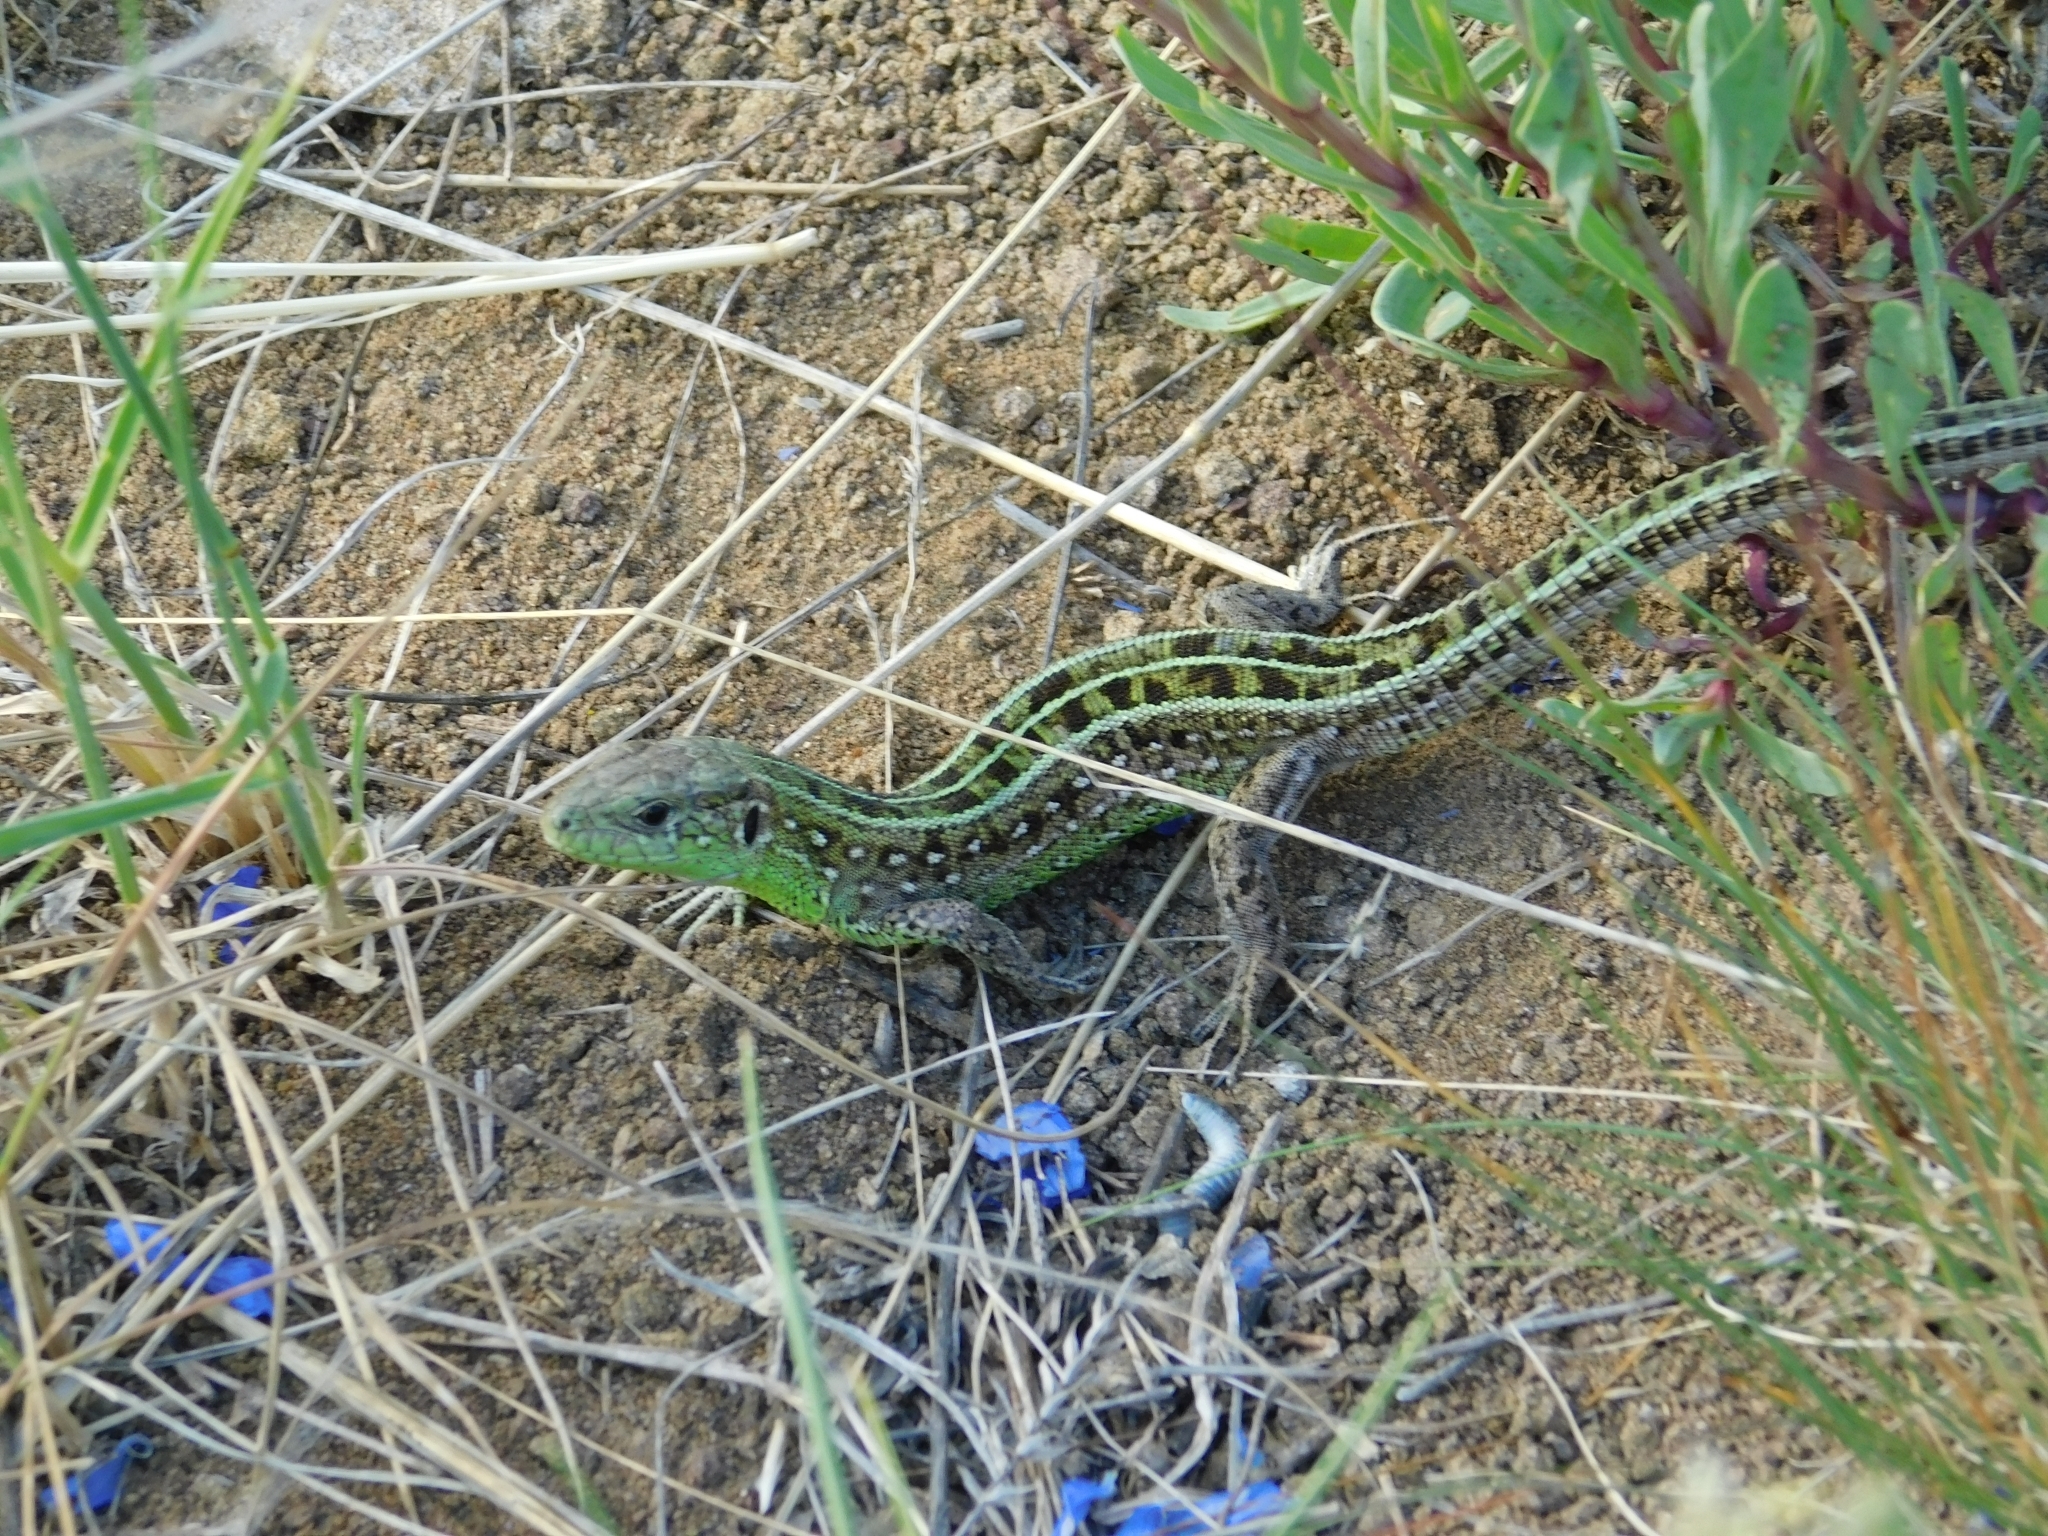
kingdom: Animalia
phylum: Chordata
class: Squamata
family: Lacertidae
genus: Lacerta
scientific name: Lacerta agilis
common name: Sand lizard
